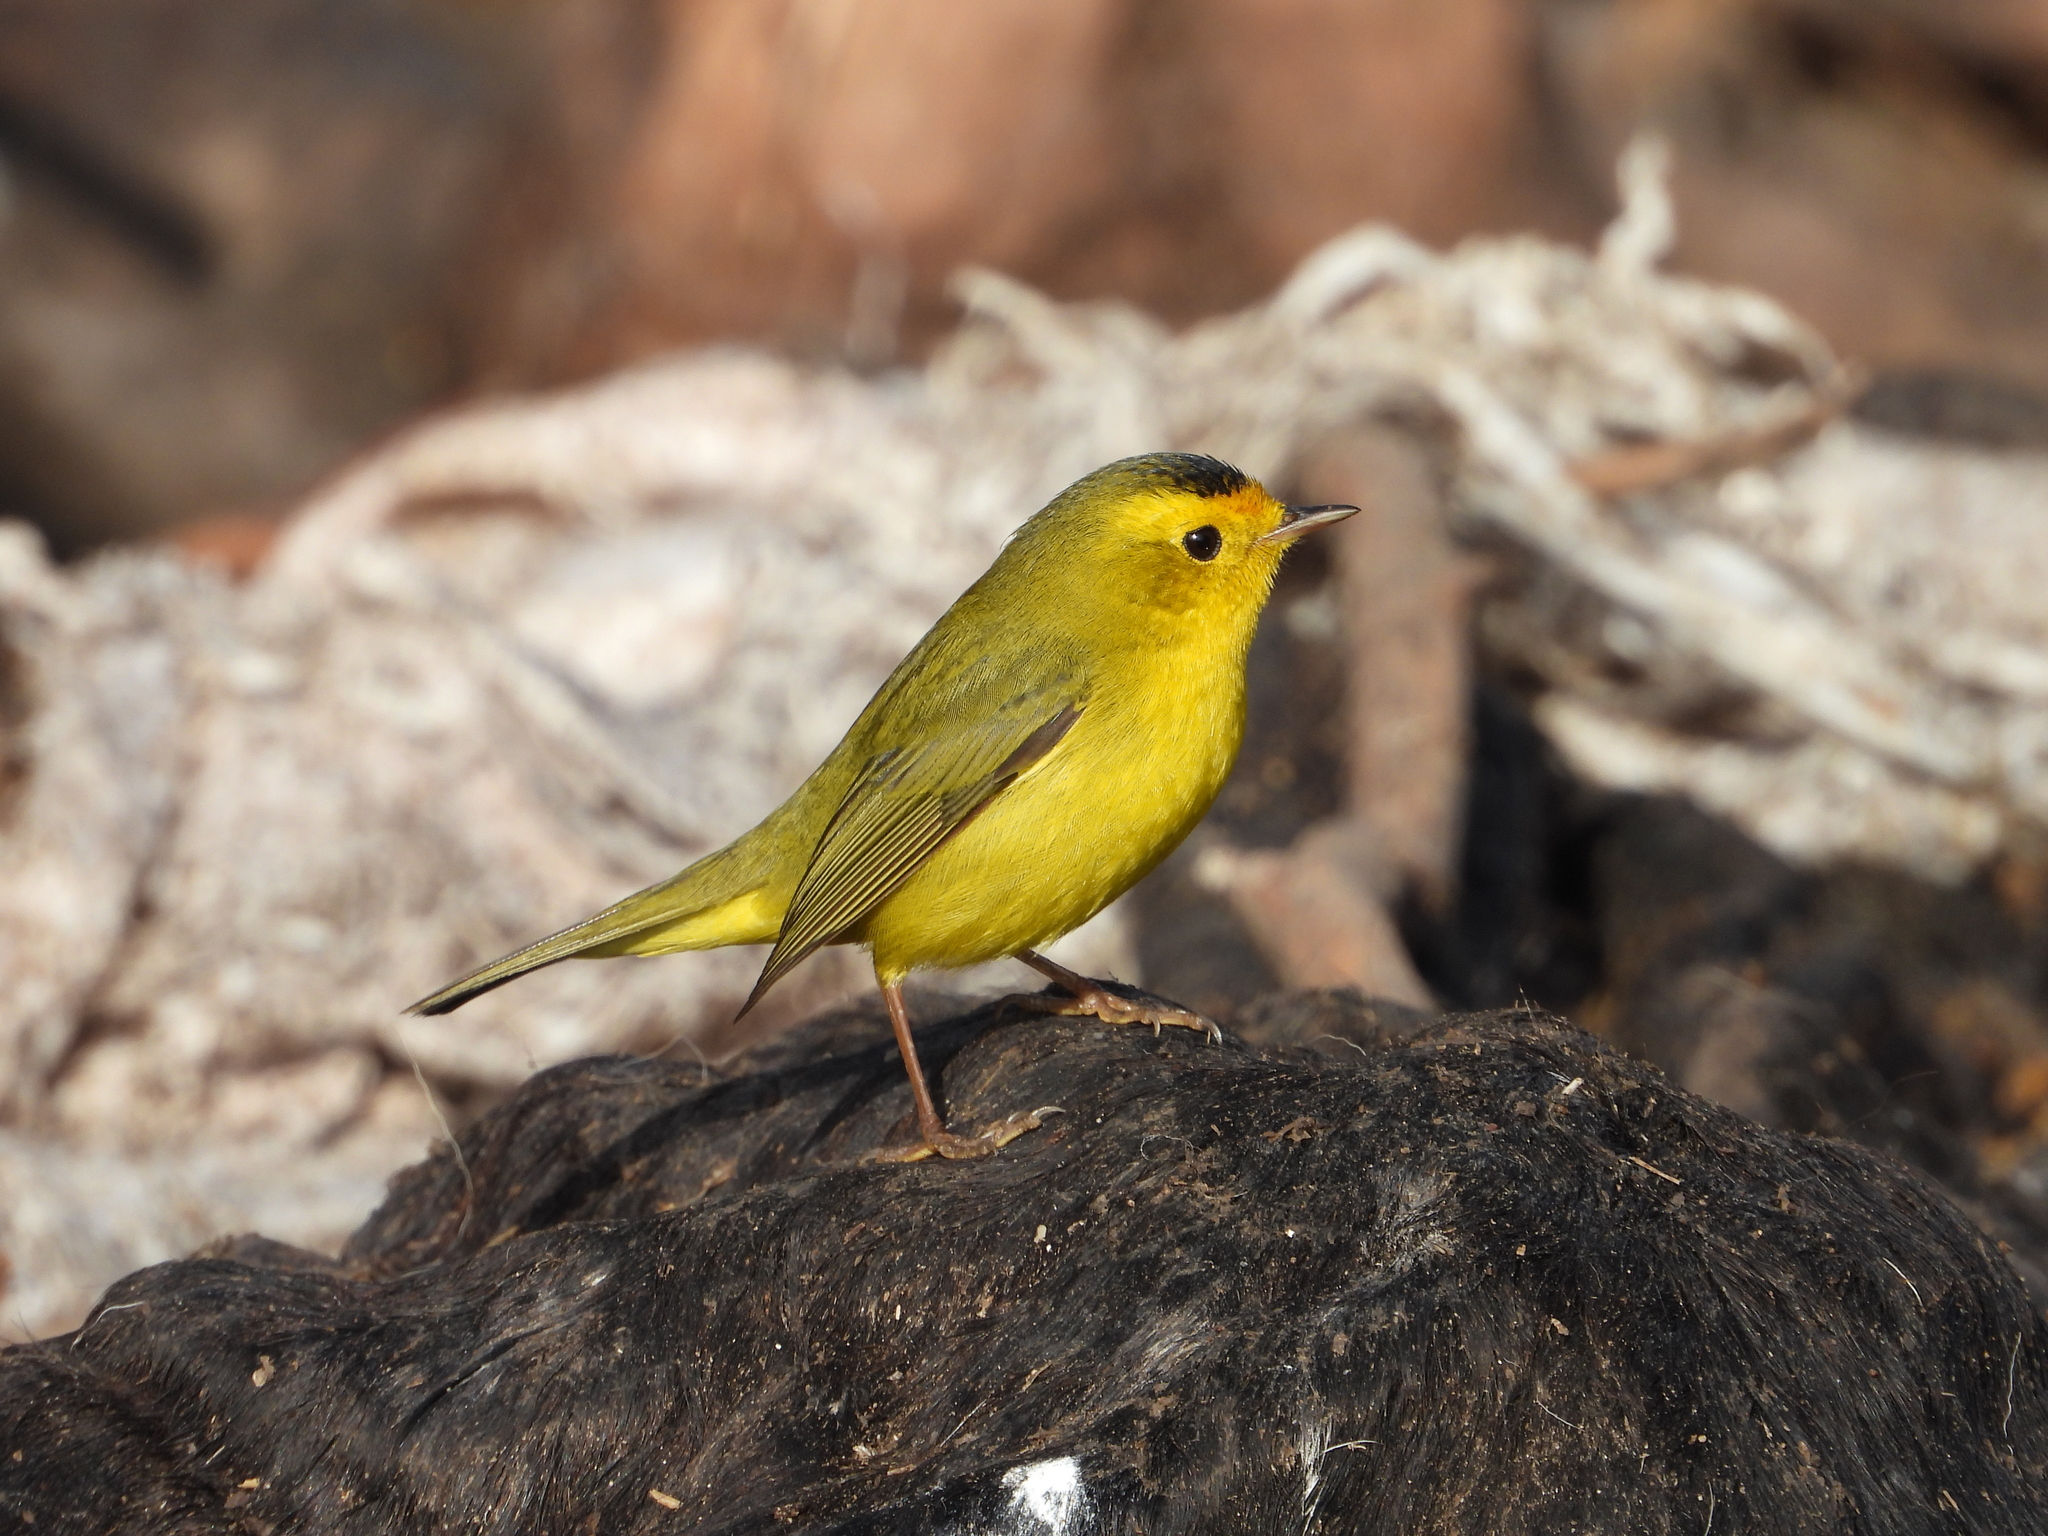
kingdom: Animalia
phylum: Chordata
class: Aves
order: Passeriformes
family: Parulidae
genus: Cardellina
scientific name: Cardellina pusilla
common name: Wilson's warbler
